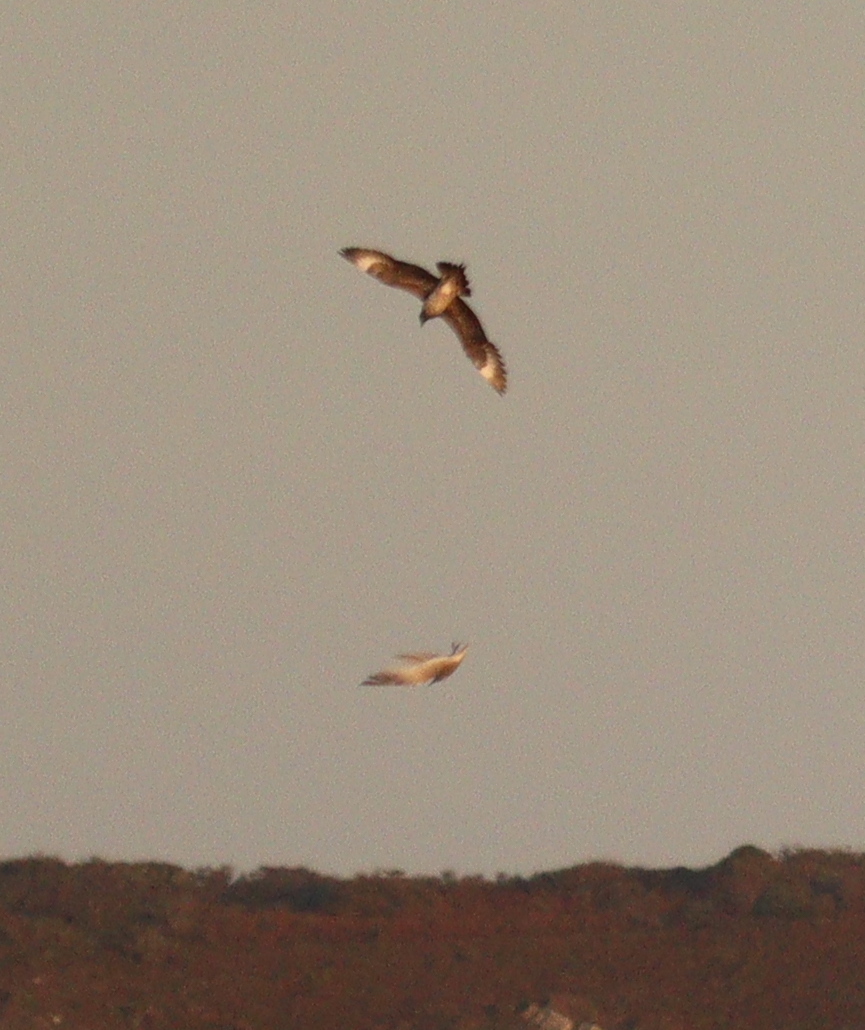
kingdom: Animalia
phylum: Chordata
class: Aves
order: Charadriiformes
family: Stercorariidae
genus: Stercorarius
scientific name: Stercorarius parasiticus
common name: Parasitic jaeger
